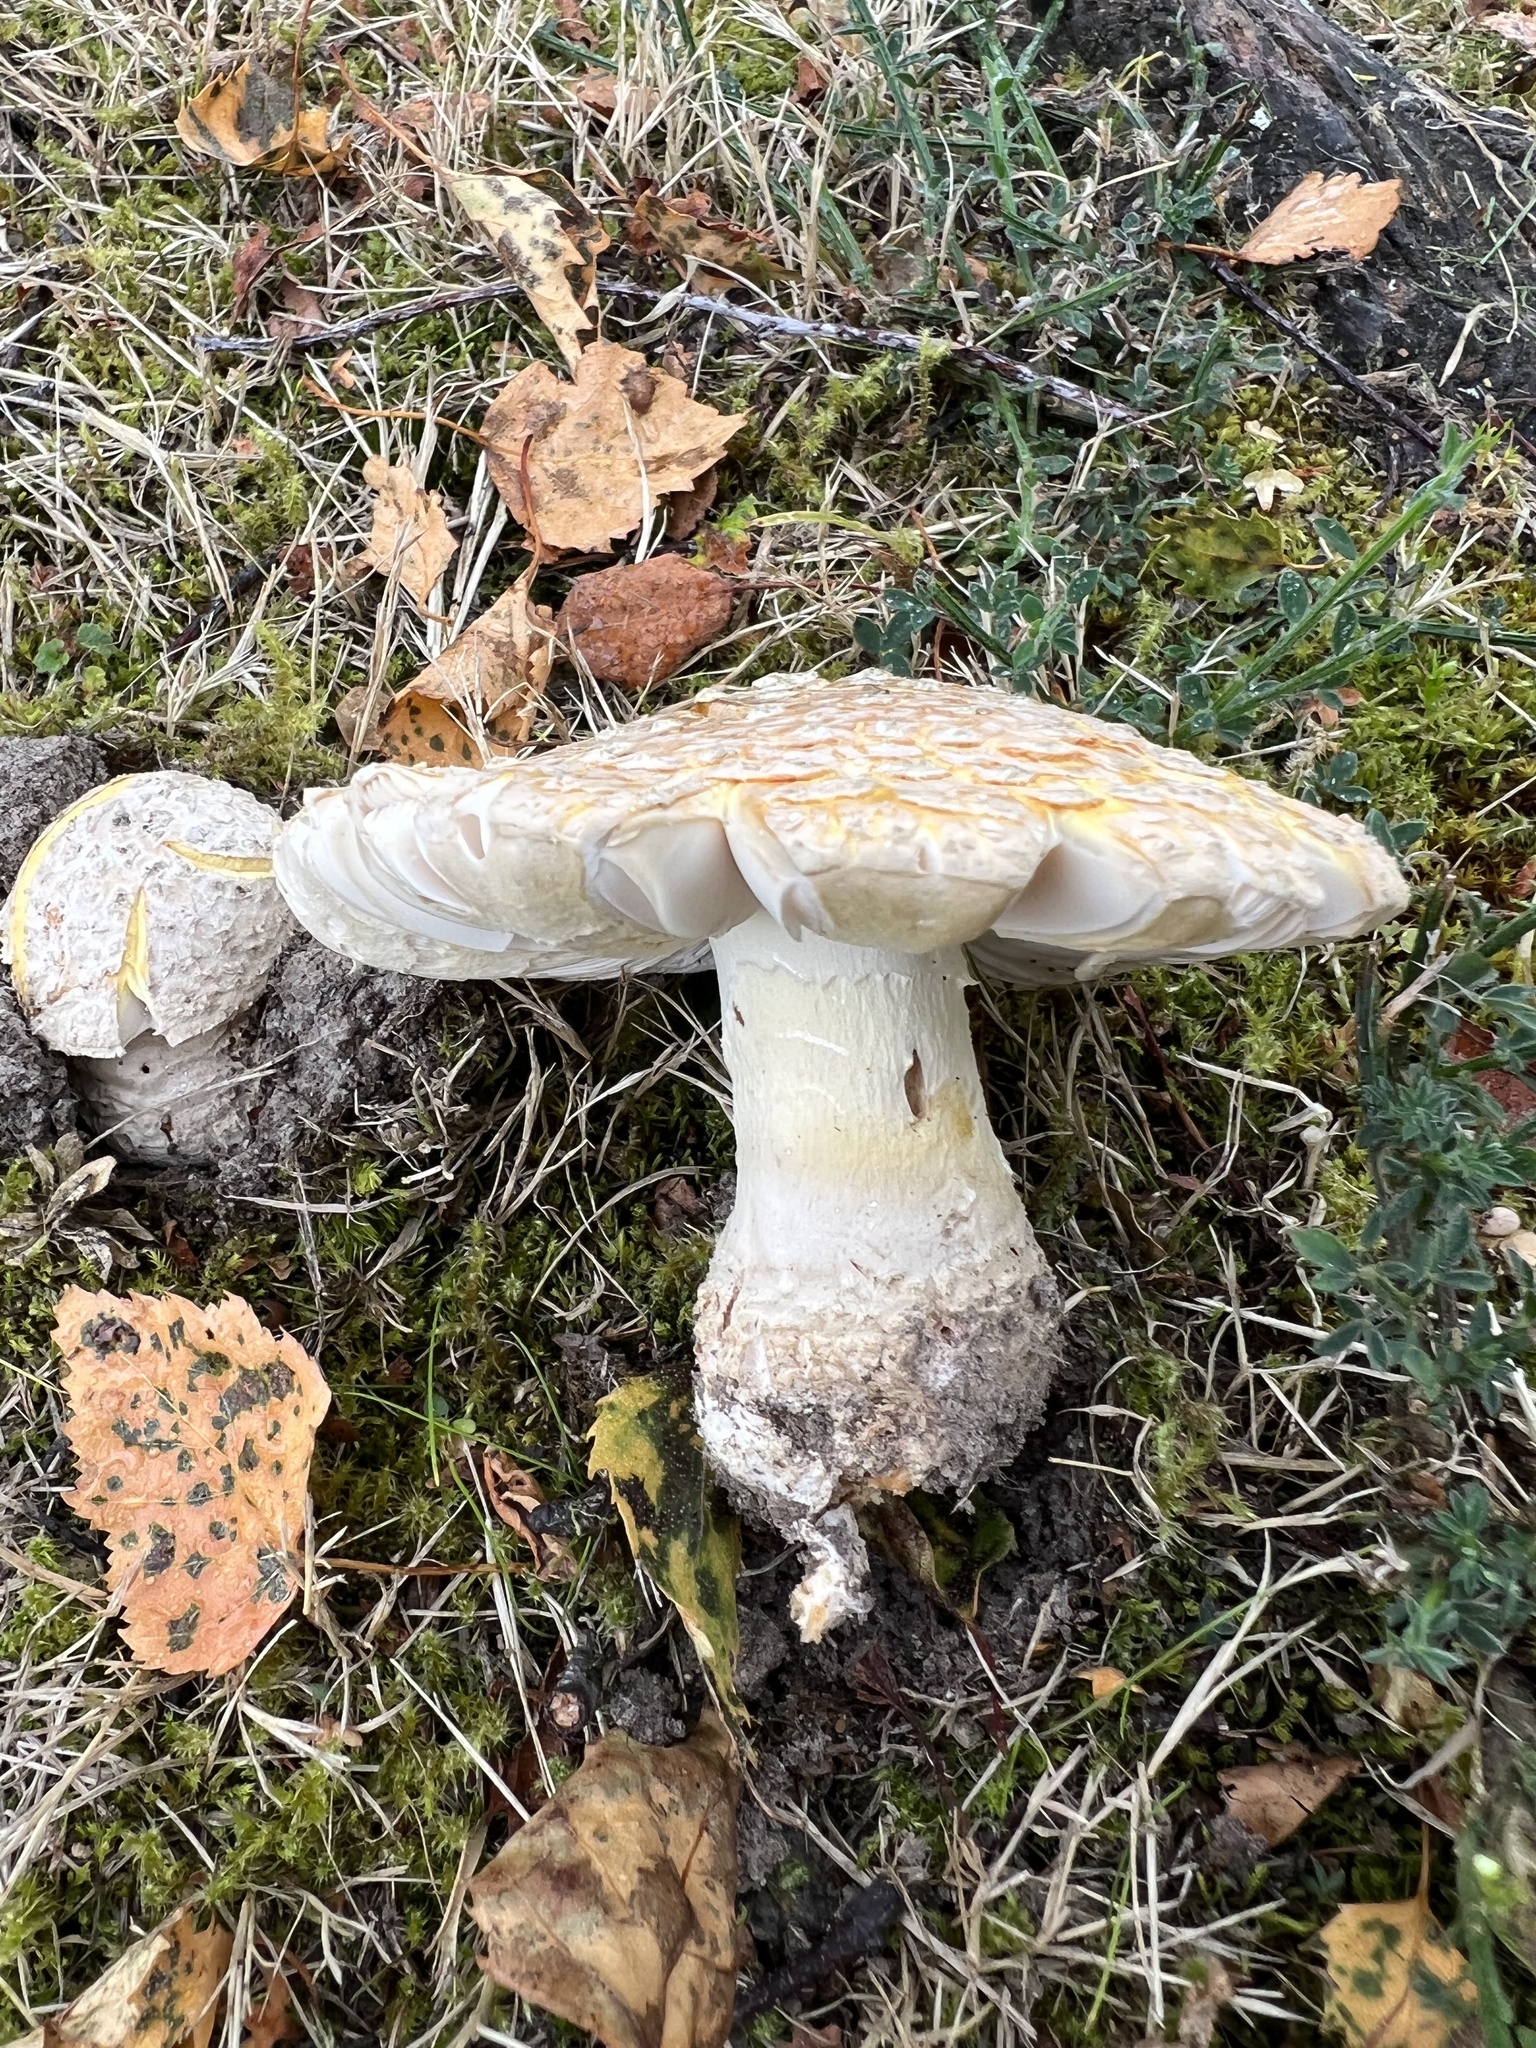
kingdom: Fungi
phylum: Basidiomycota
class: Agaricomycetes
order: Agaricales
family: Amanitaceae
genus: Amanita
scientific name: Amanita muscaria
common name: Fly agaric
